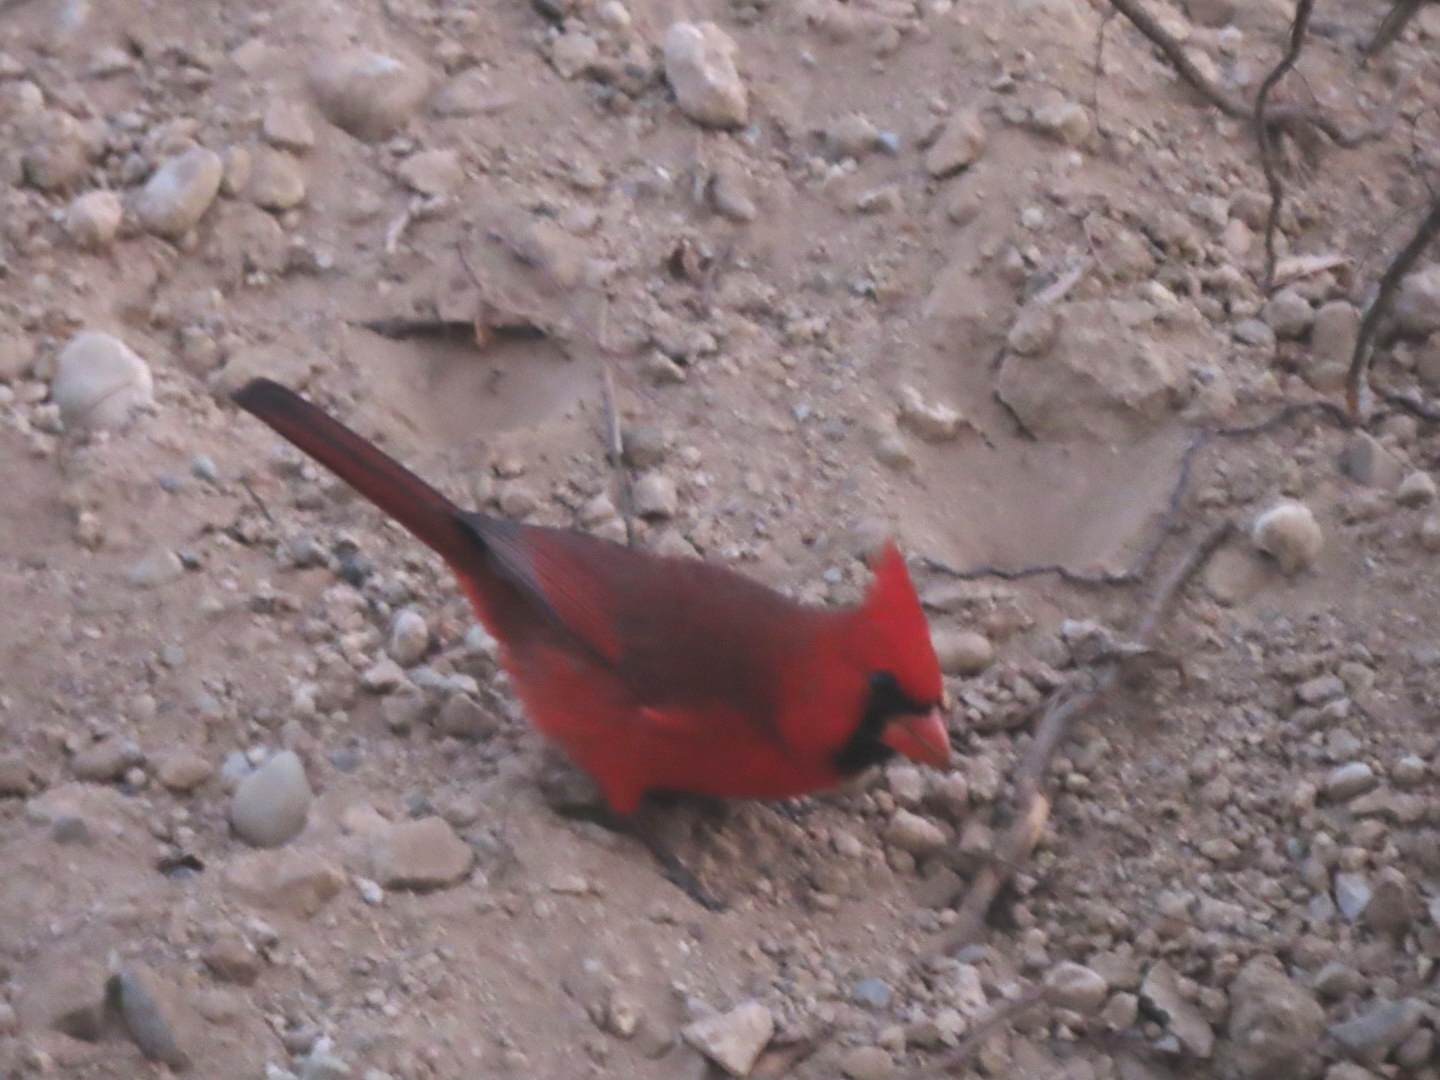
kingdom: Animalia
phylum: Chordata
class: Aves
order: Passeriformes
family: Cardinalidae
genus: Cardinalis
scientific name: Cardinalis cardinalis
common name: Northern cardinal
